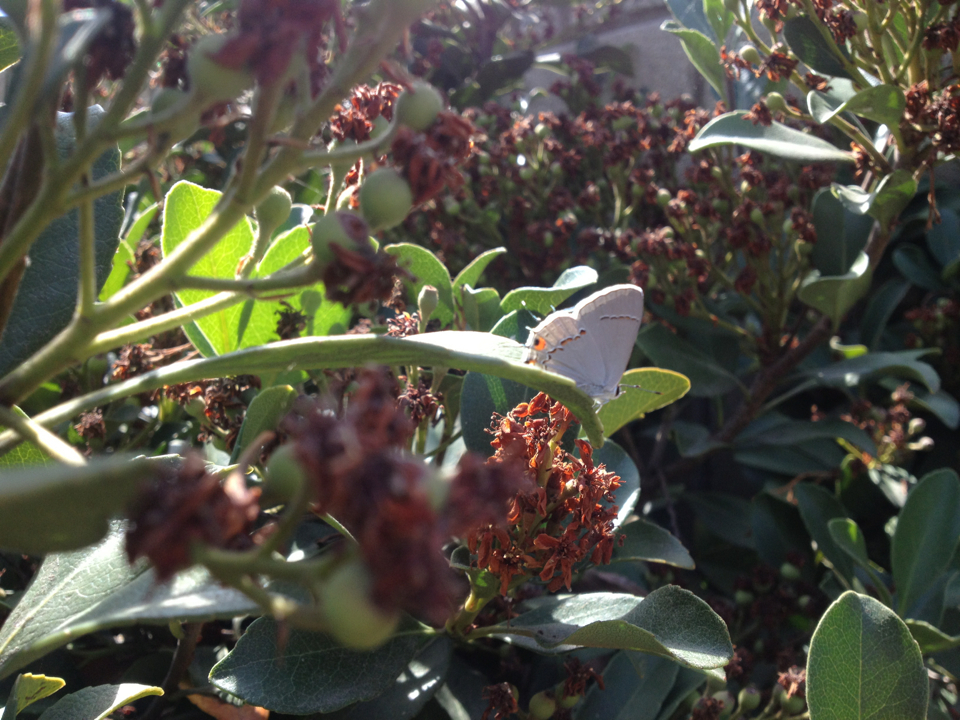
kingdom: Animalia
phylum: Arthropoda
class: Insecta
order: Lepidoptera
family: Lycaenidae
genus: Strymon
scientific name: Strymon melinus
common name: Gray hairstreak
